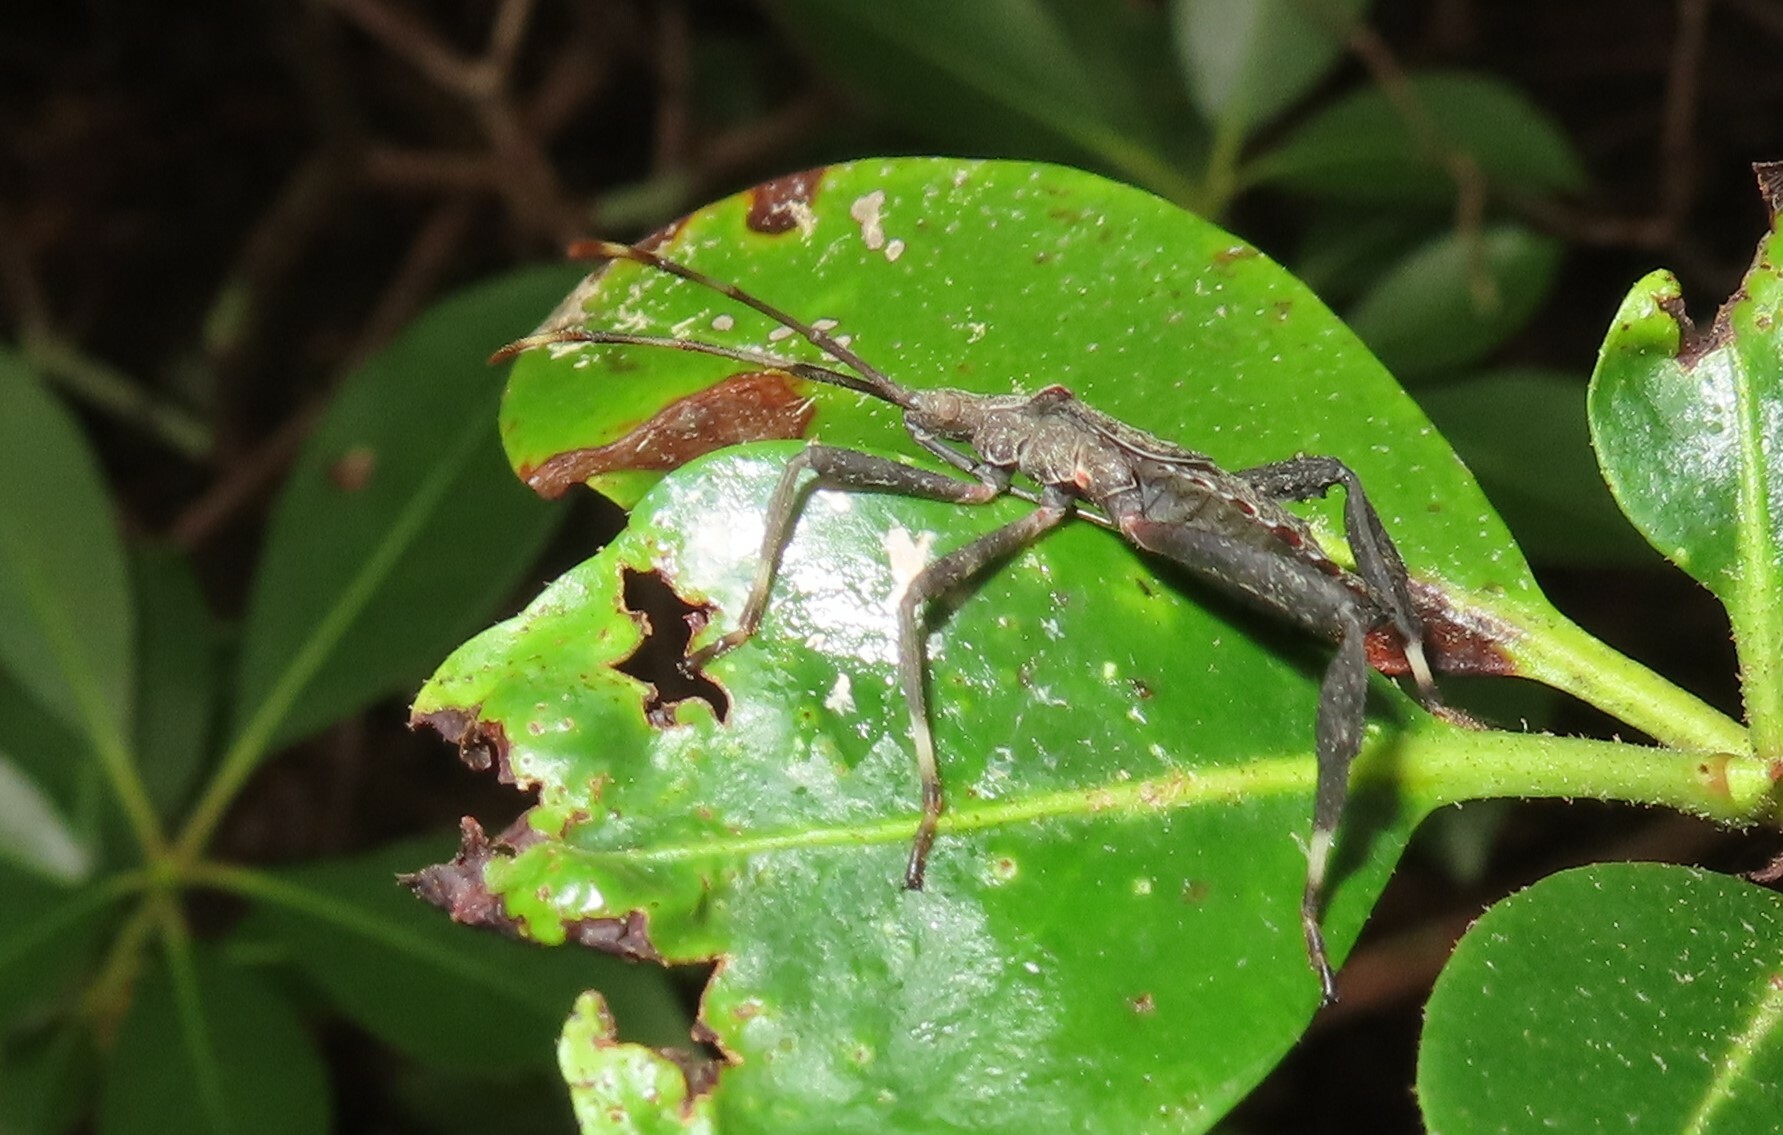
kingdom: Animalia
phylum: Arthropoda
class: Insecta
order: Hemiptera
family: Coreidae
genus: Acanthocephala
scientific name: Acanthocephala terminalis
